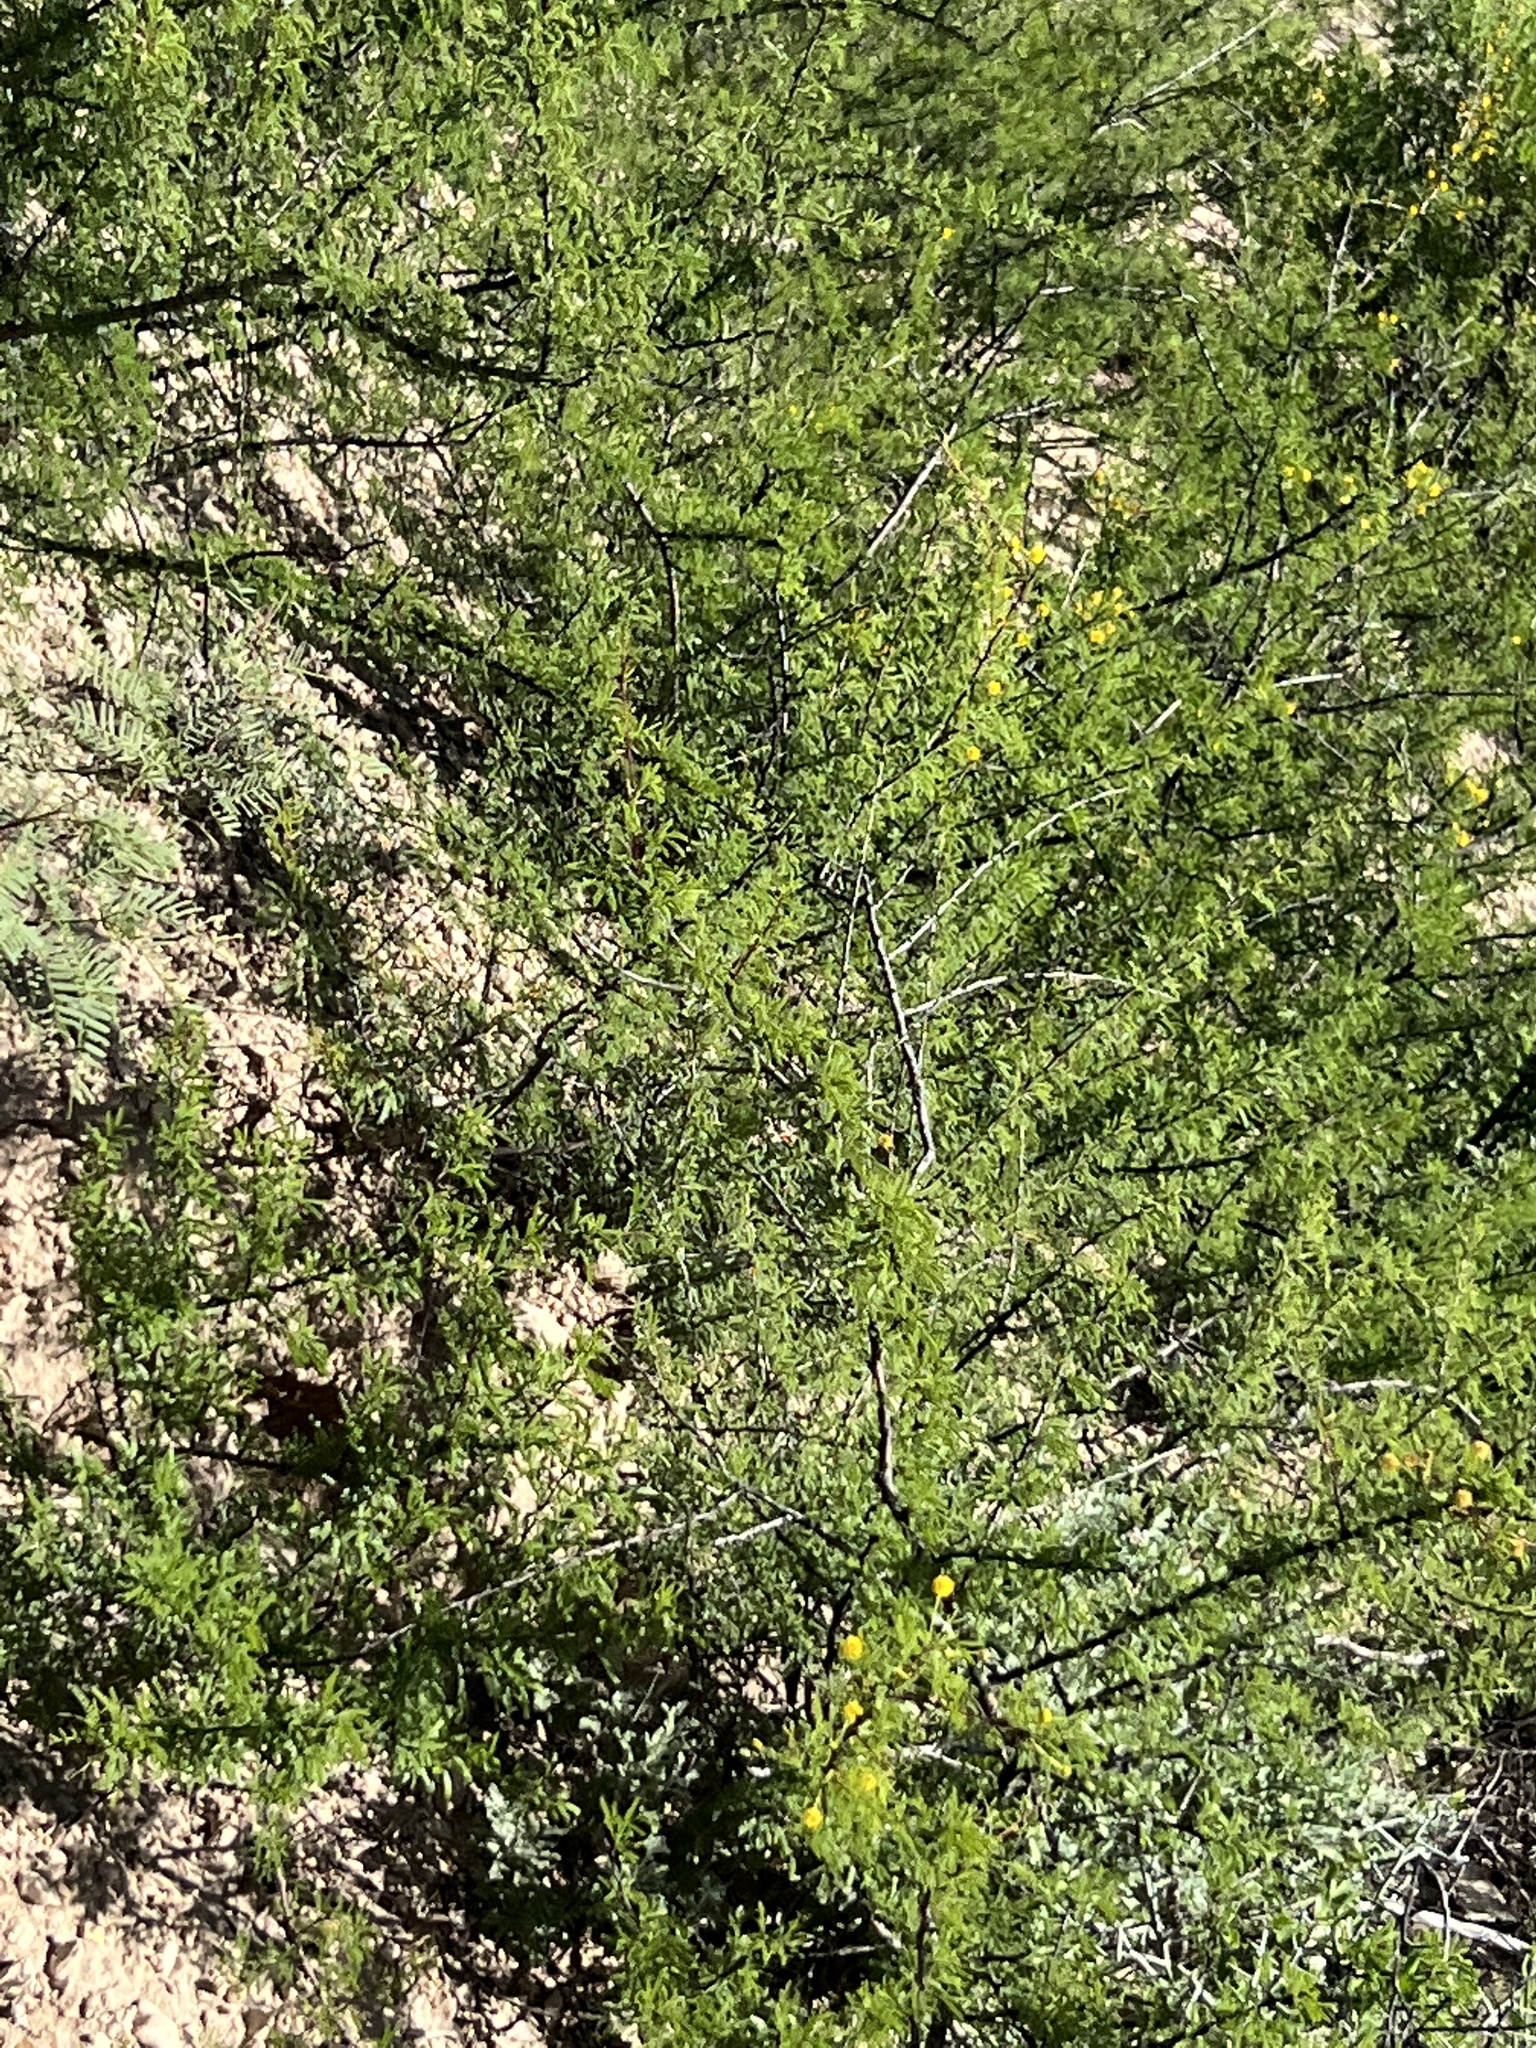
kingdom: Plantae
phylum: Tracheophyta
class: Magnoliopsida
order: Fabales
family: Fabaceae
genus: Vachellia
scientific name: Vachellia vernicosa
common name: Viscid acacia
